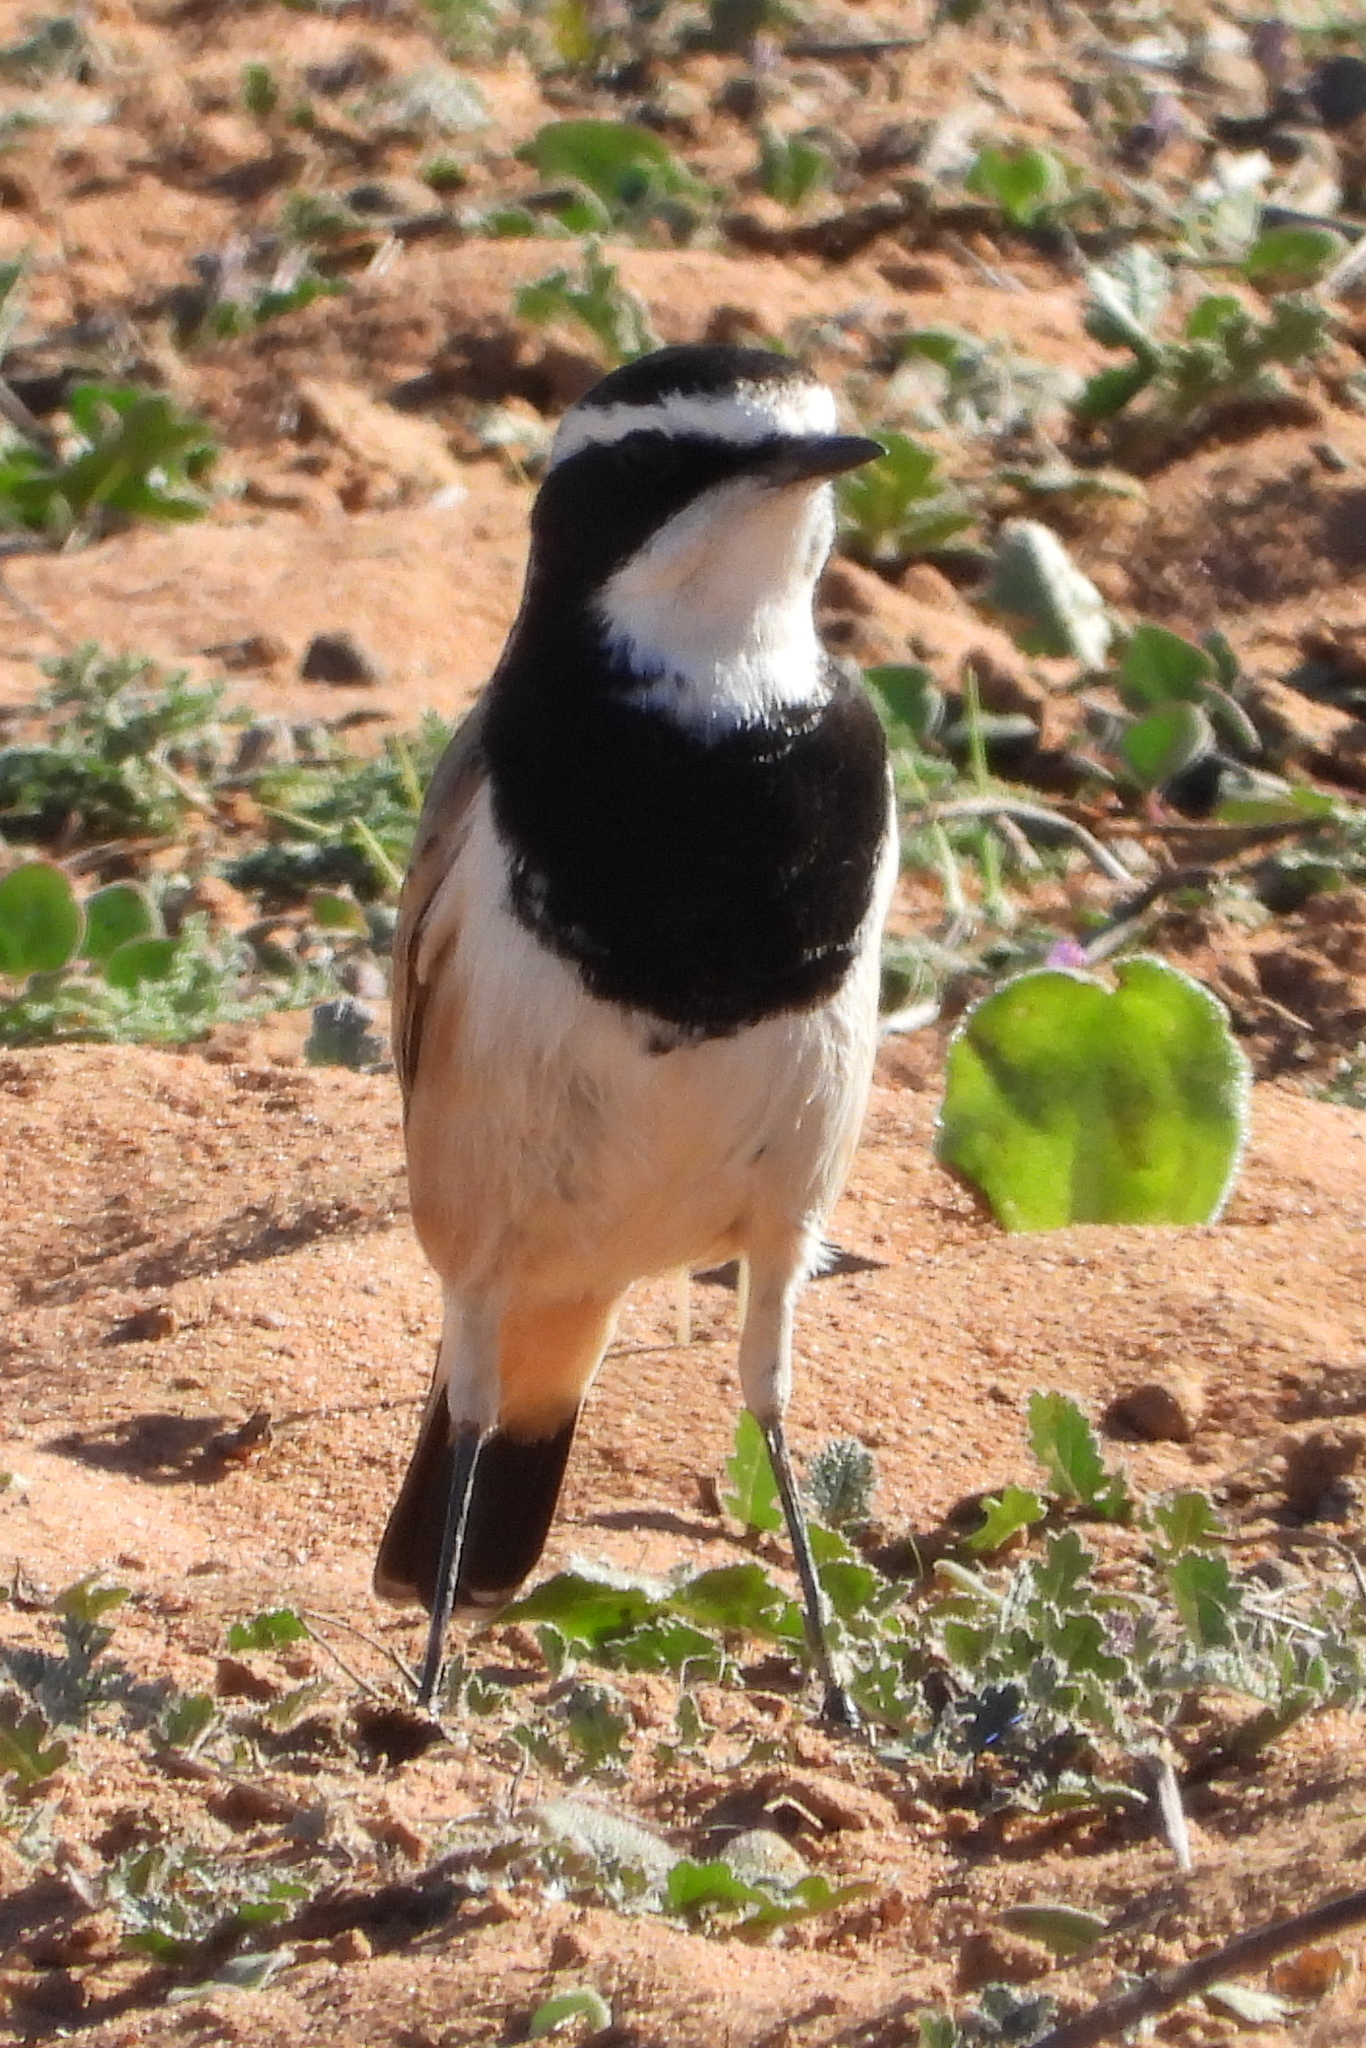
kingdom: Animalia
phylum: Chordata
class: Aves
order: Passeriformes
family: Muscicapidae
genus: Oenanthe
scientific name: Oenanthe pileata
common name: Capped wheatear
